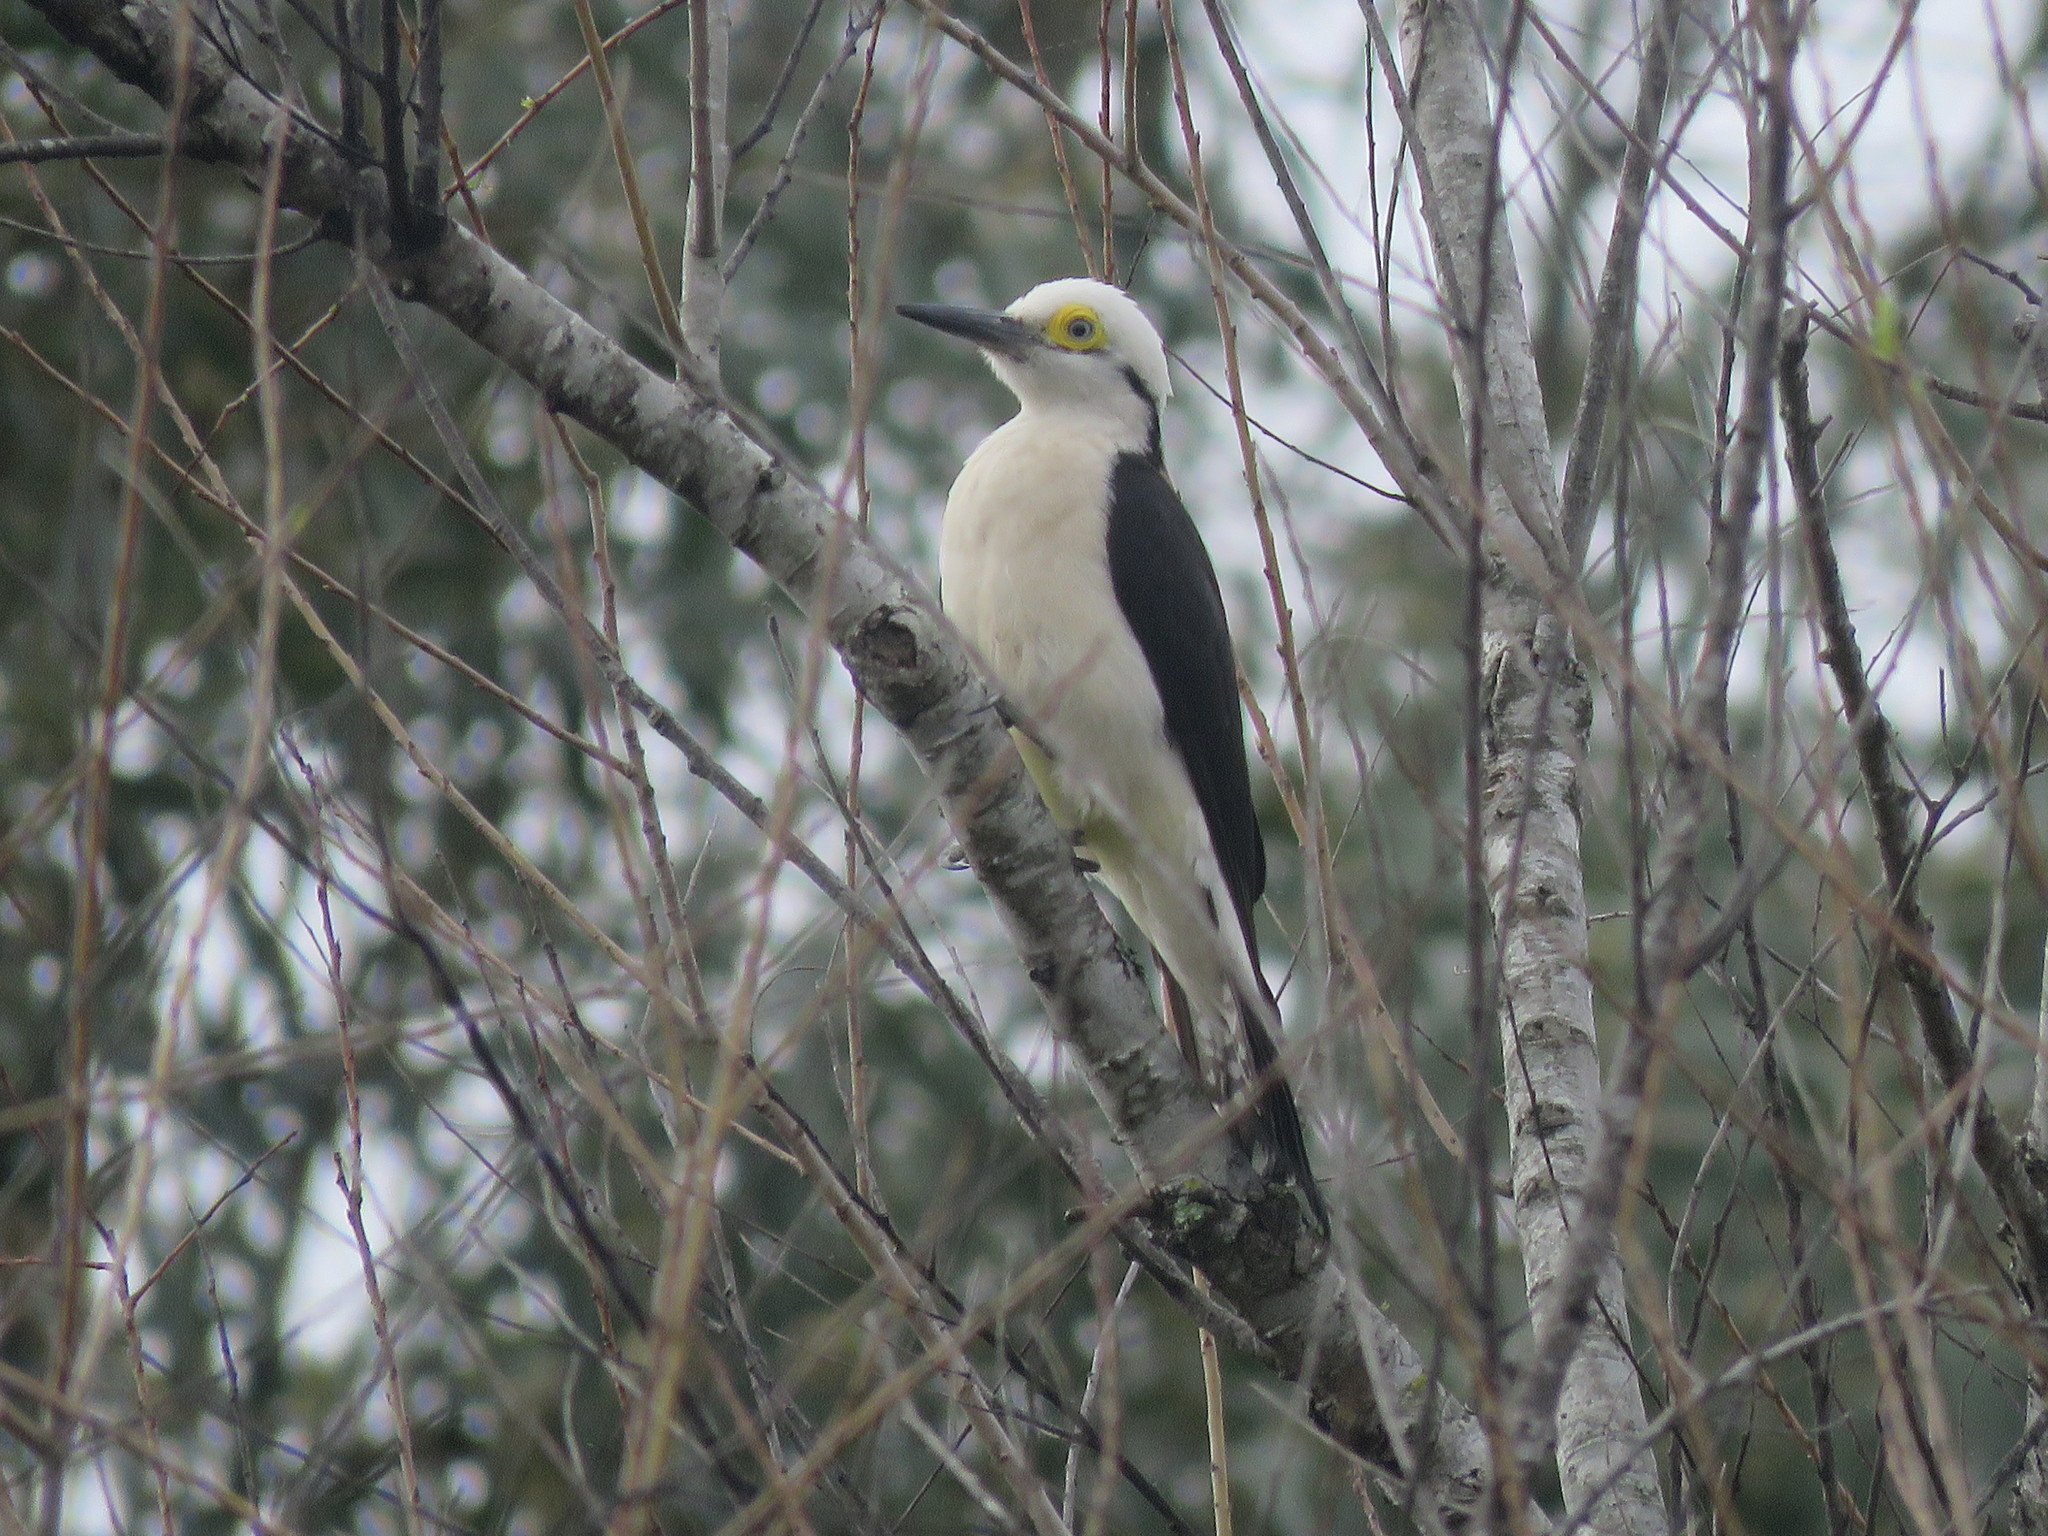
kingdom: Animalia
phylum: Chordata
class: Aves
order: Piciformes
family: Picidae
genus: Melanerpes
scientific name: Melanerpes candidus
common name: White woodpecker
